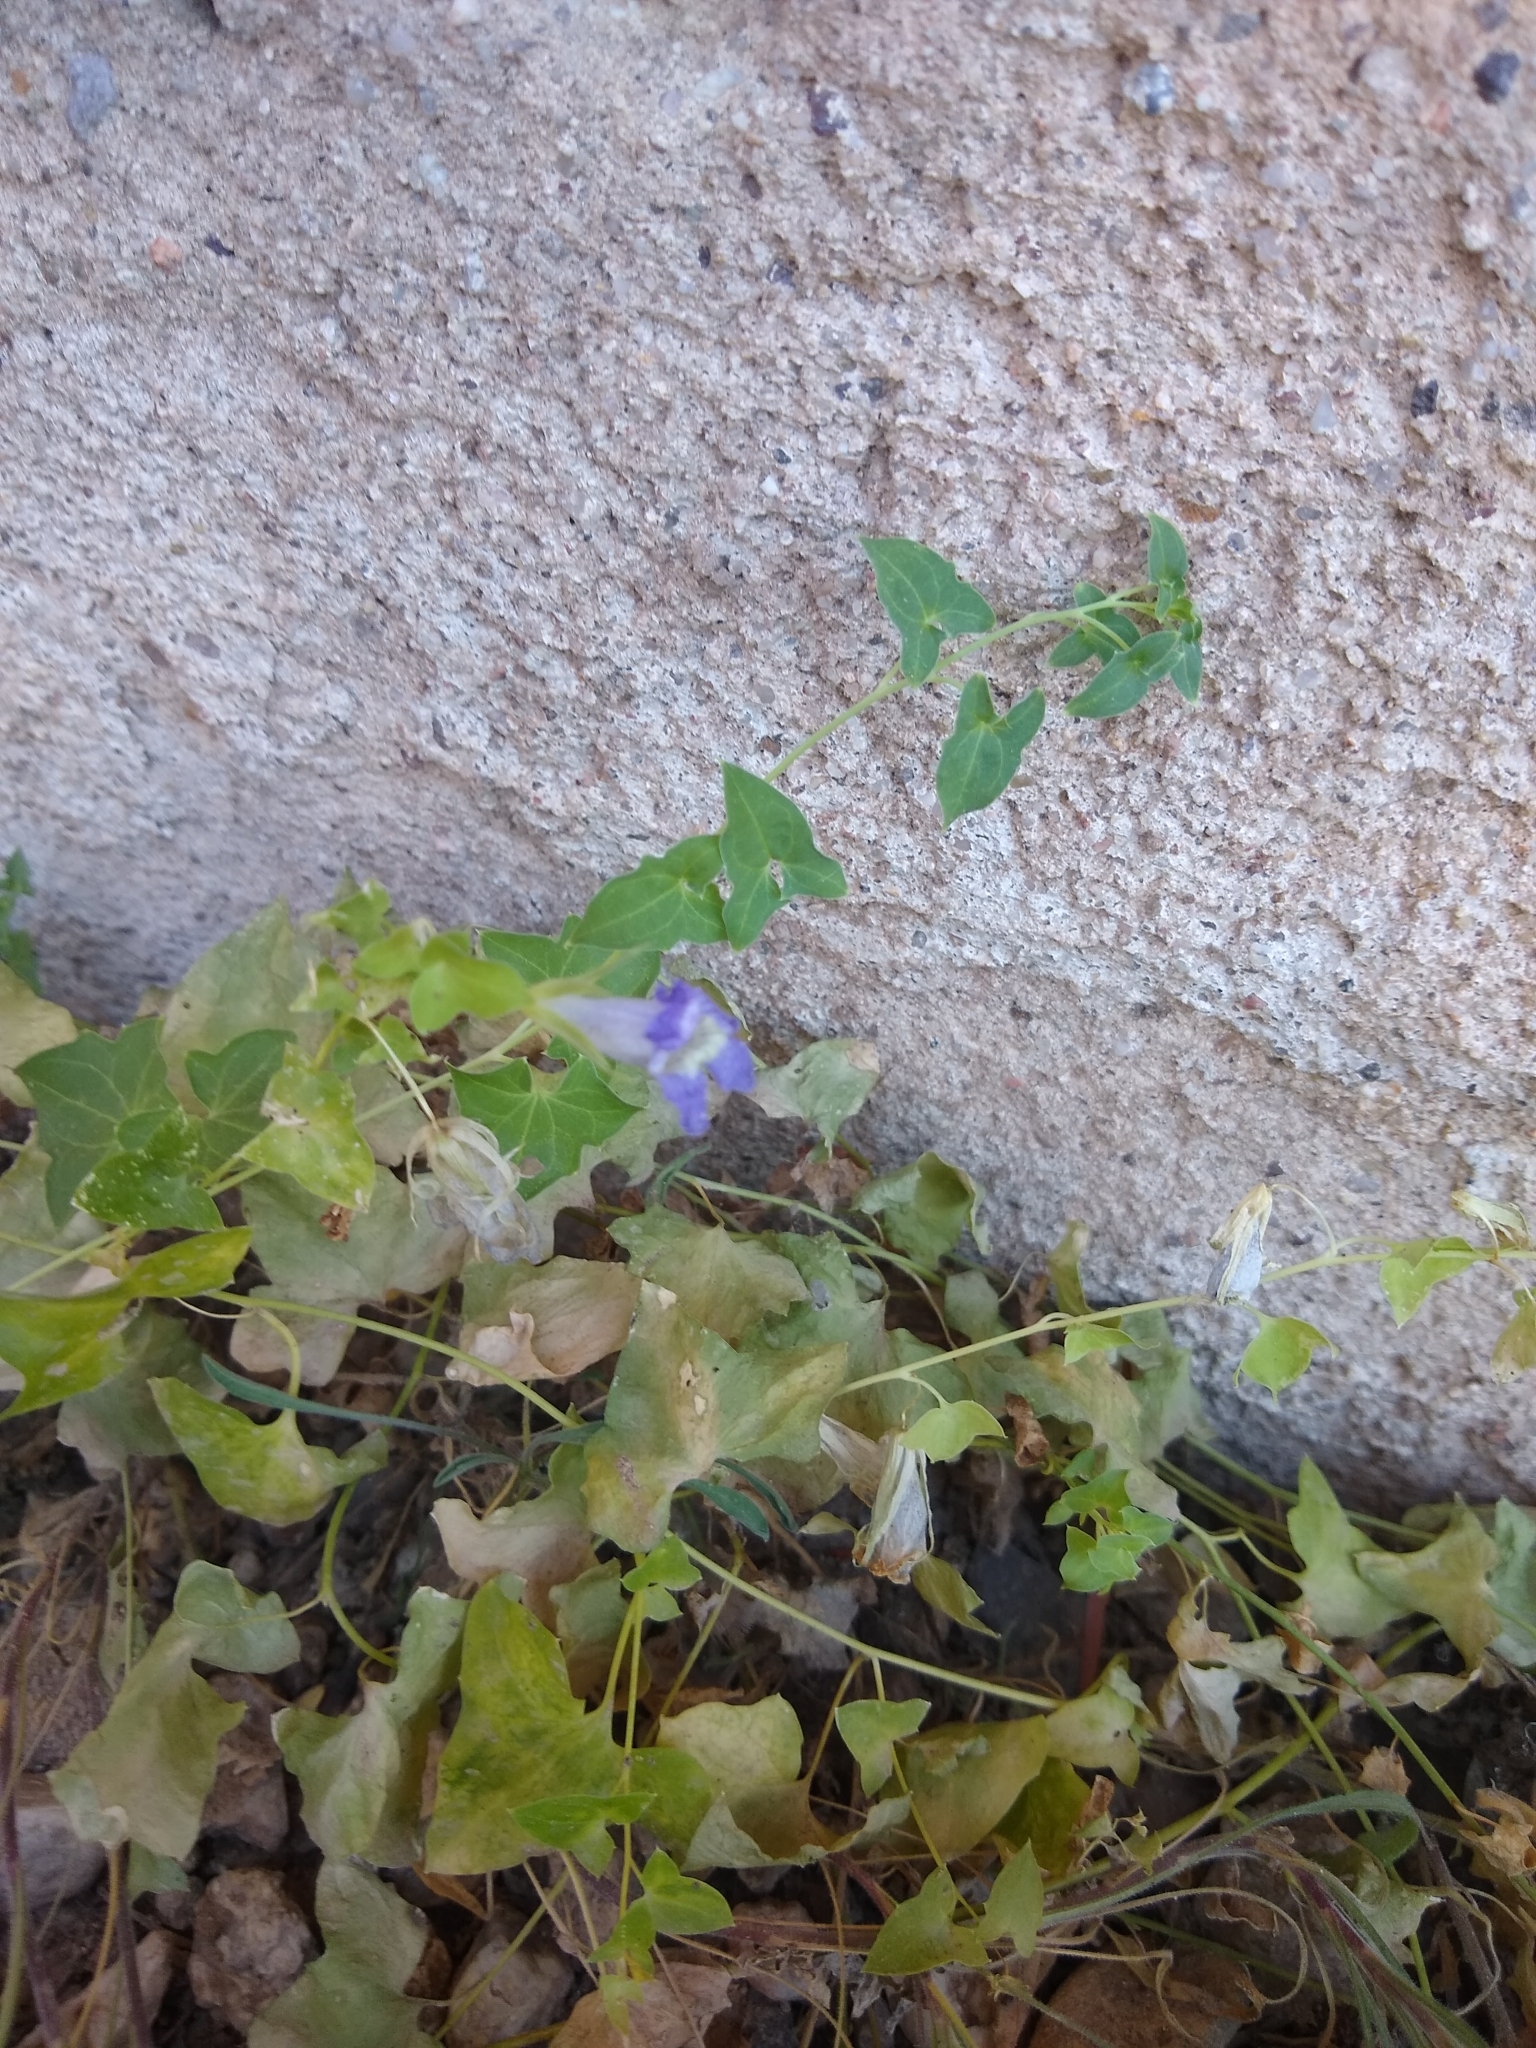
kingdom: Plantae
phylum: Tracheophyta
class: Magnoliopsida
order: Lamiales
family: Plantaginaceae
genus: Maurandella
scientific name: Maurandella antirrhiniflora
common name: Violet twining-snapdragon
